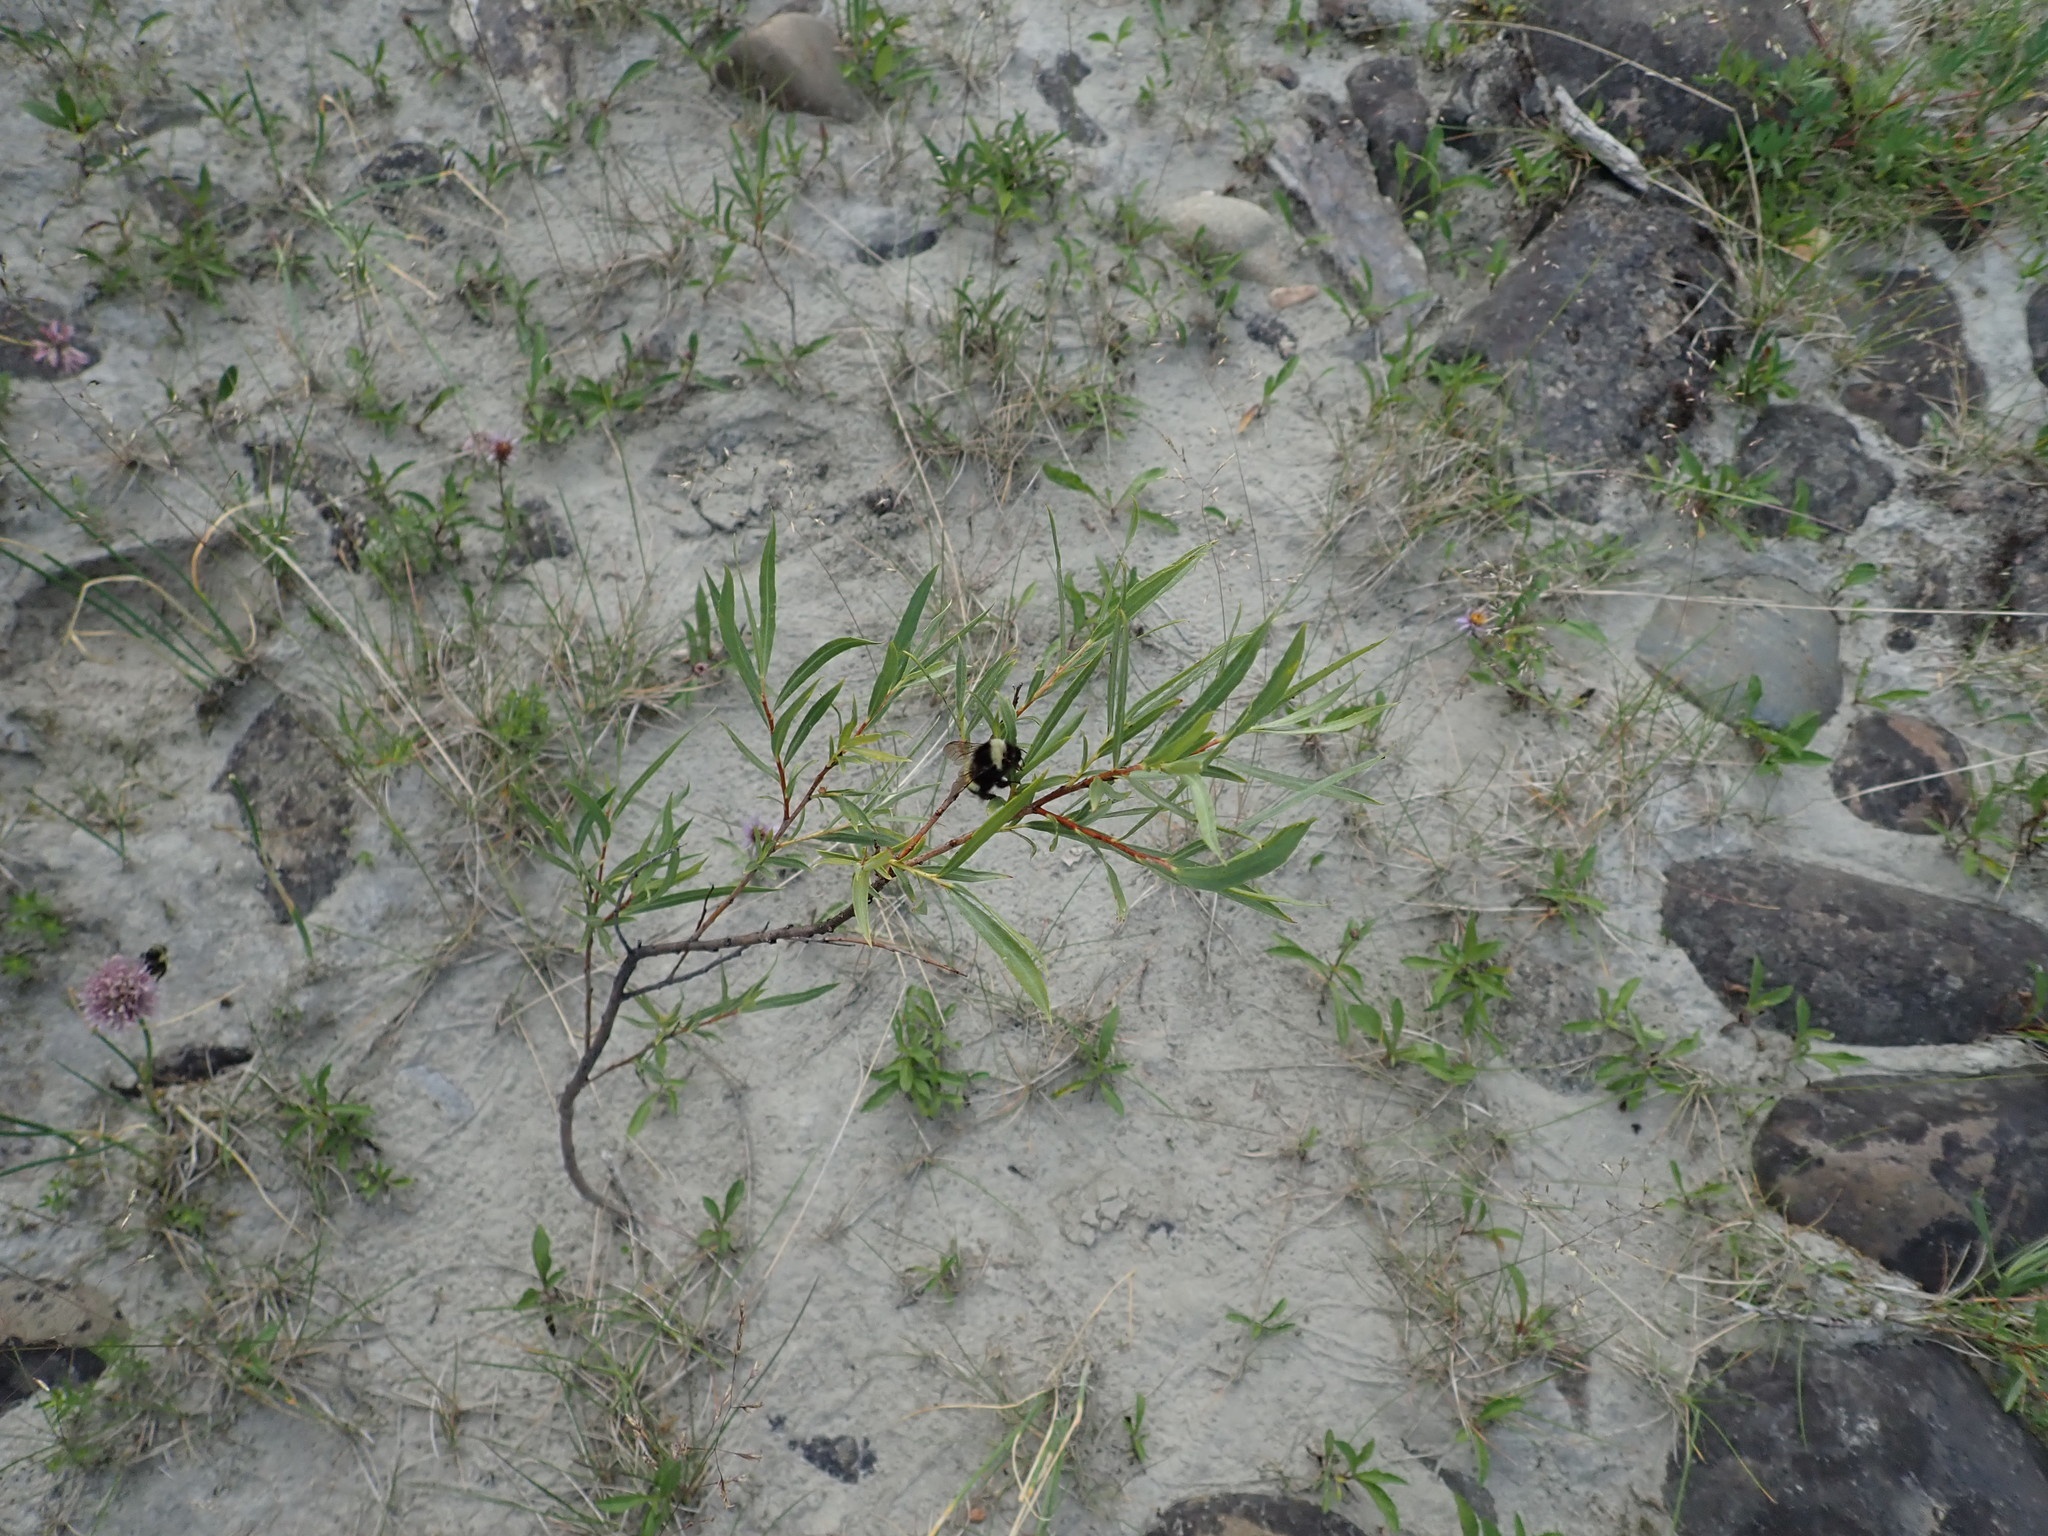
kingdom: Animalia
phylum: Arthropoda
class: Insecta
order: Hymenoptera
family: Apidae
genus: Bombus
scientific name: Bombus cryptarum
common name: Cryptic bumblebee
